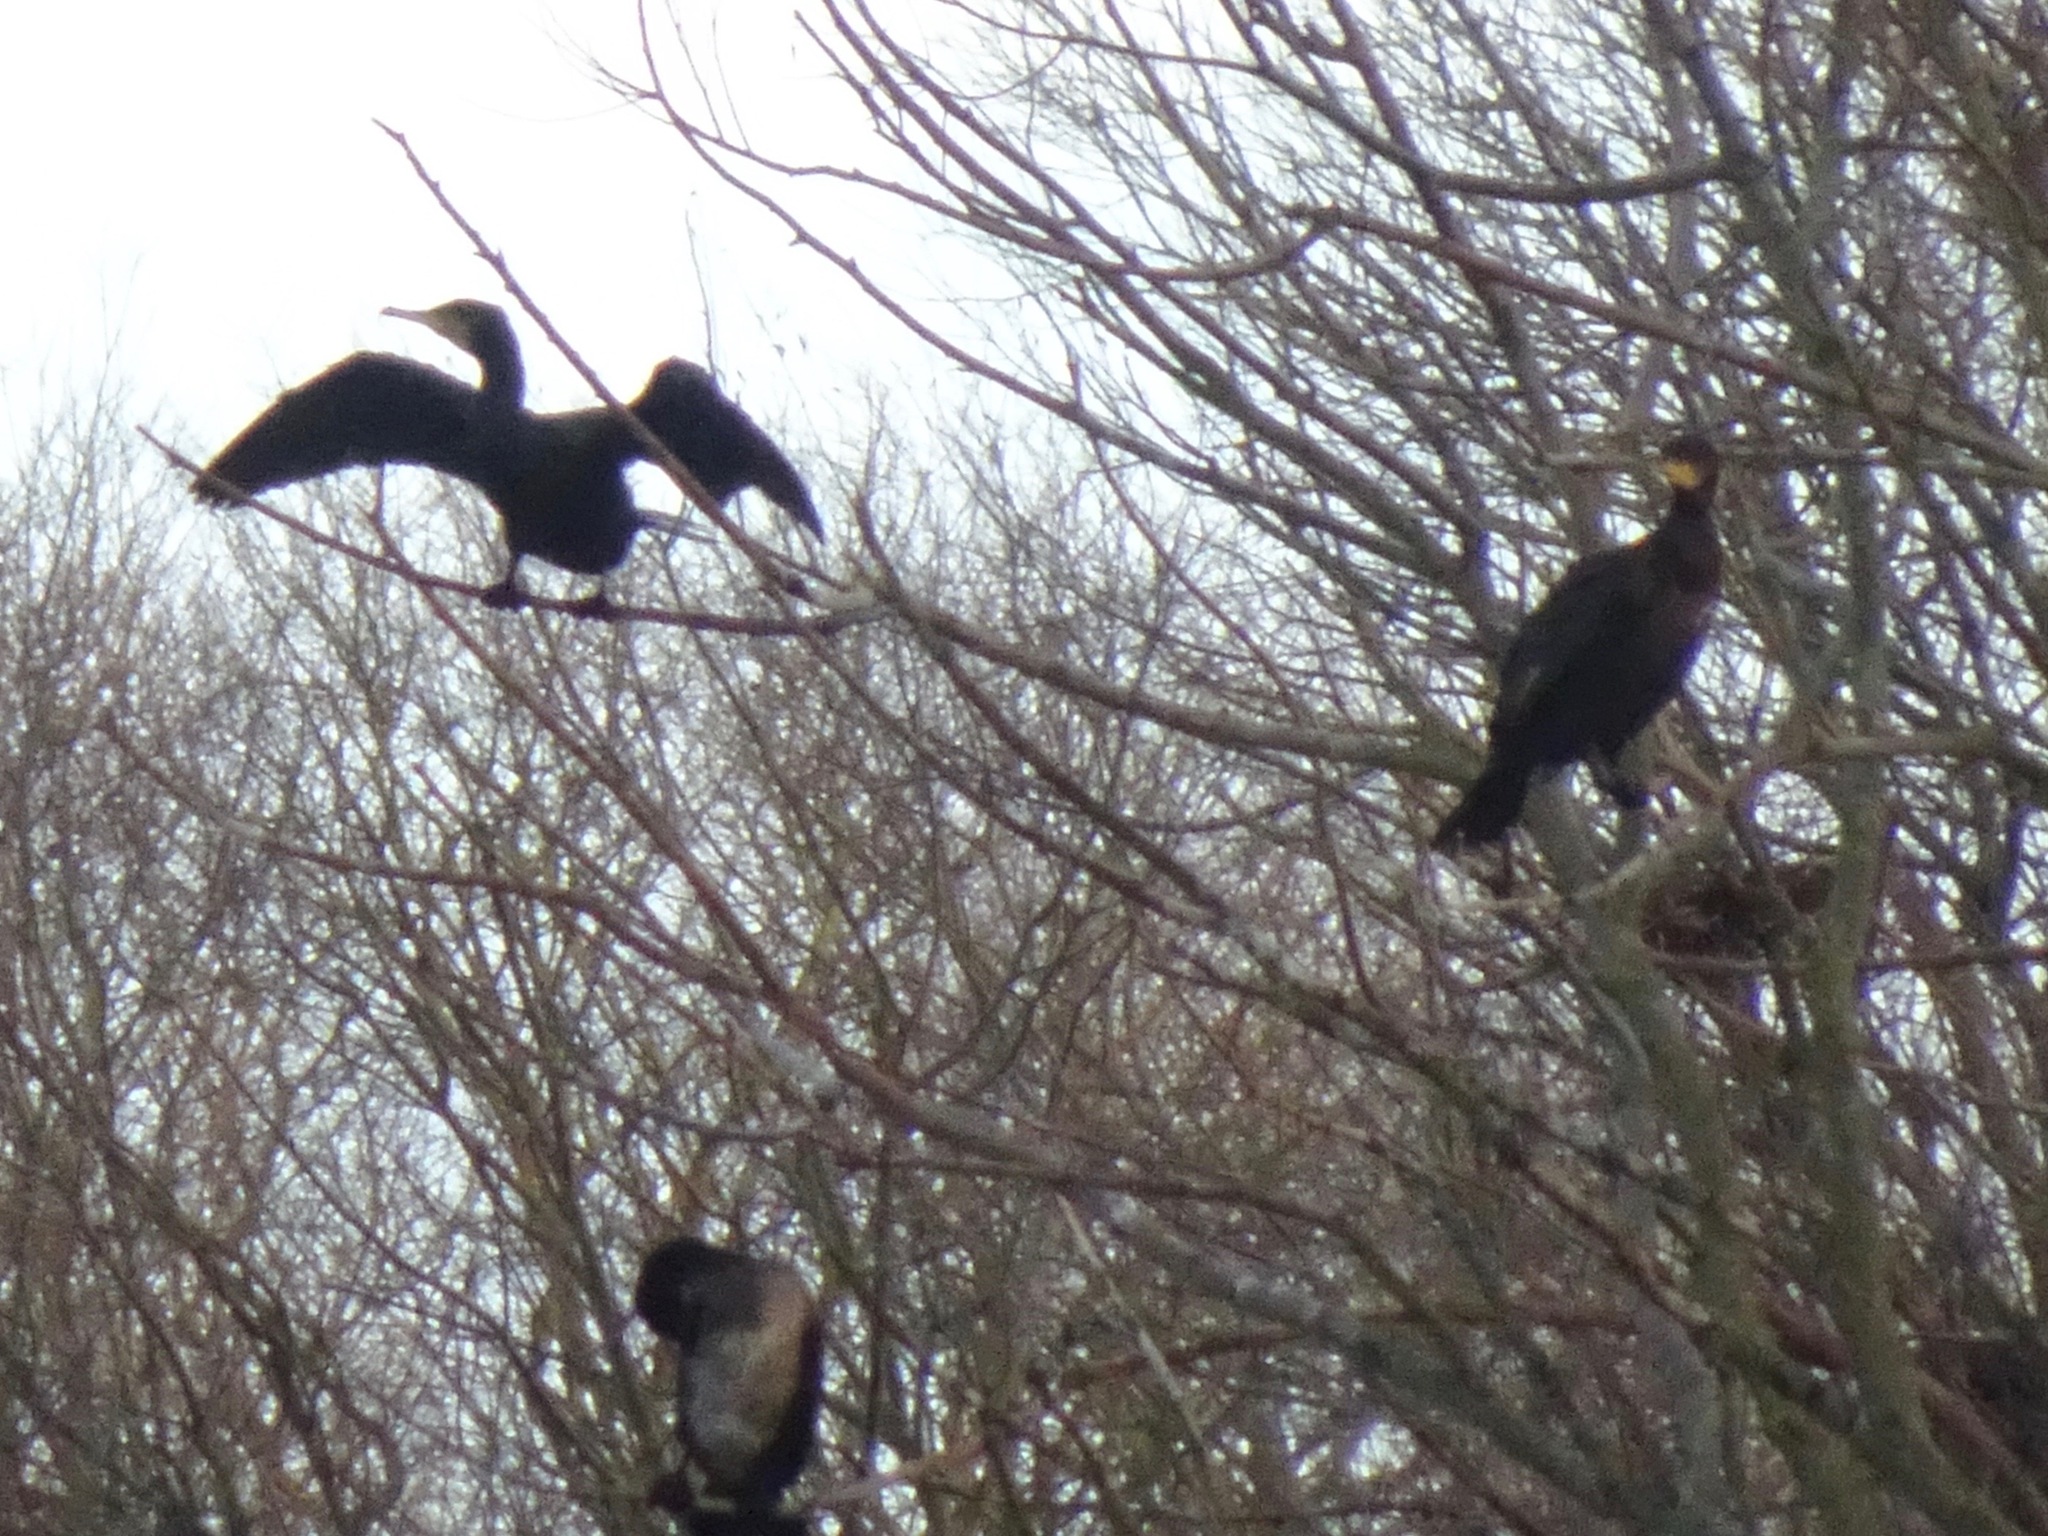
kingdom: Animalia
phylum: Chordata
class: Aves
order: Suliformes
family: Phalacrocoracidae
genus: Phalacrocorax
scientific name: Phalacrocorax carbo
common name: Great cormorant
